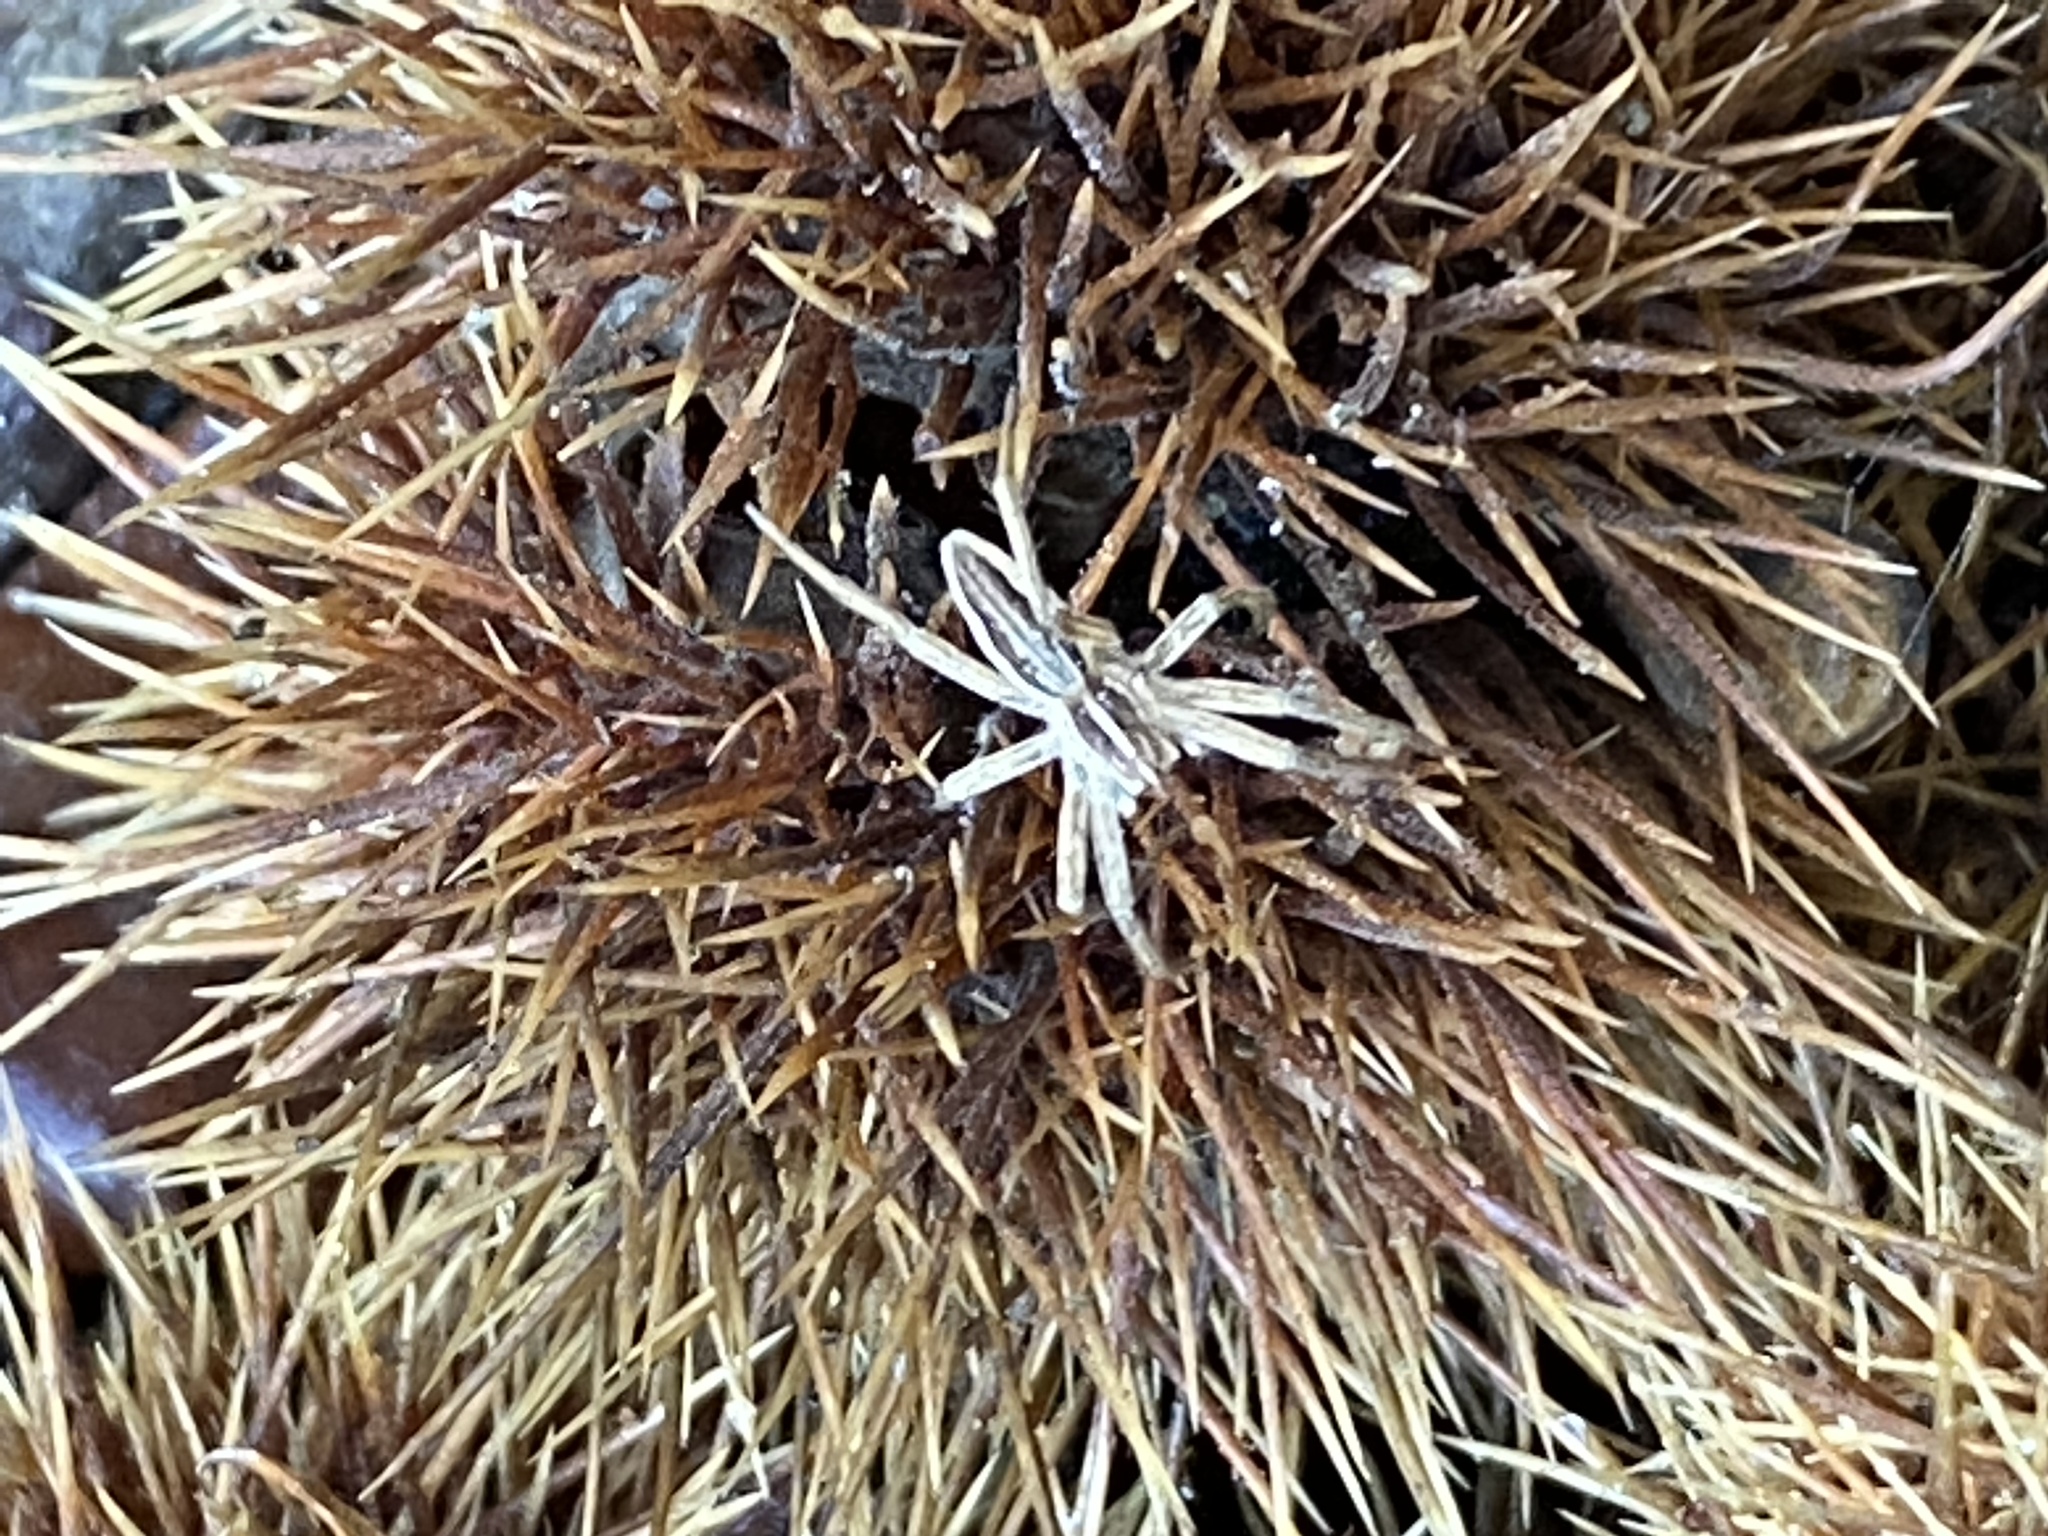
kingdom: Animalia
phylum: Arthropoda
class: Arachnida
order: Araneae
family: Pisauridae
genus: Pisaura
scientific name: Pisaura mirabilis
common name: Tent spider
